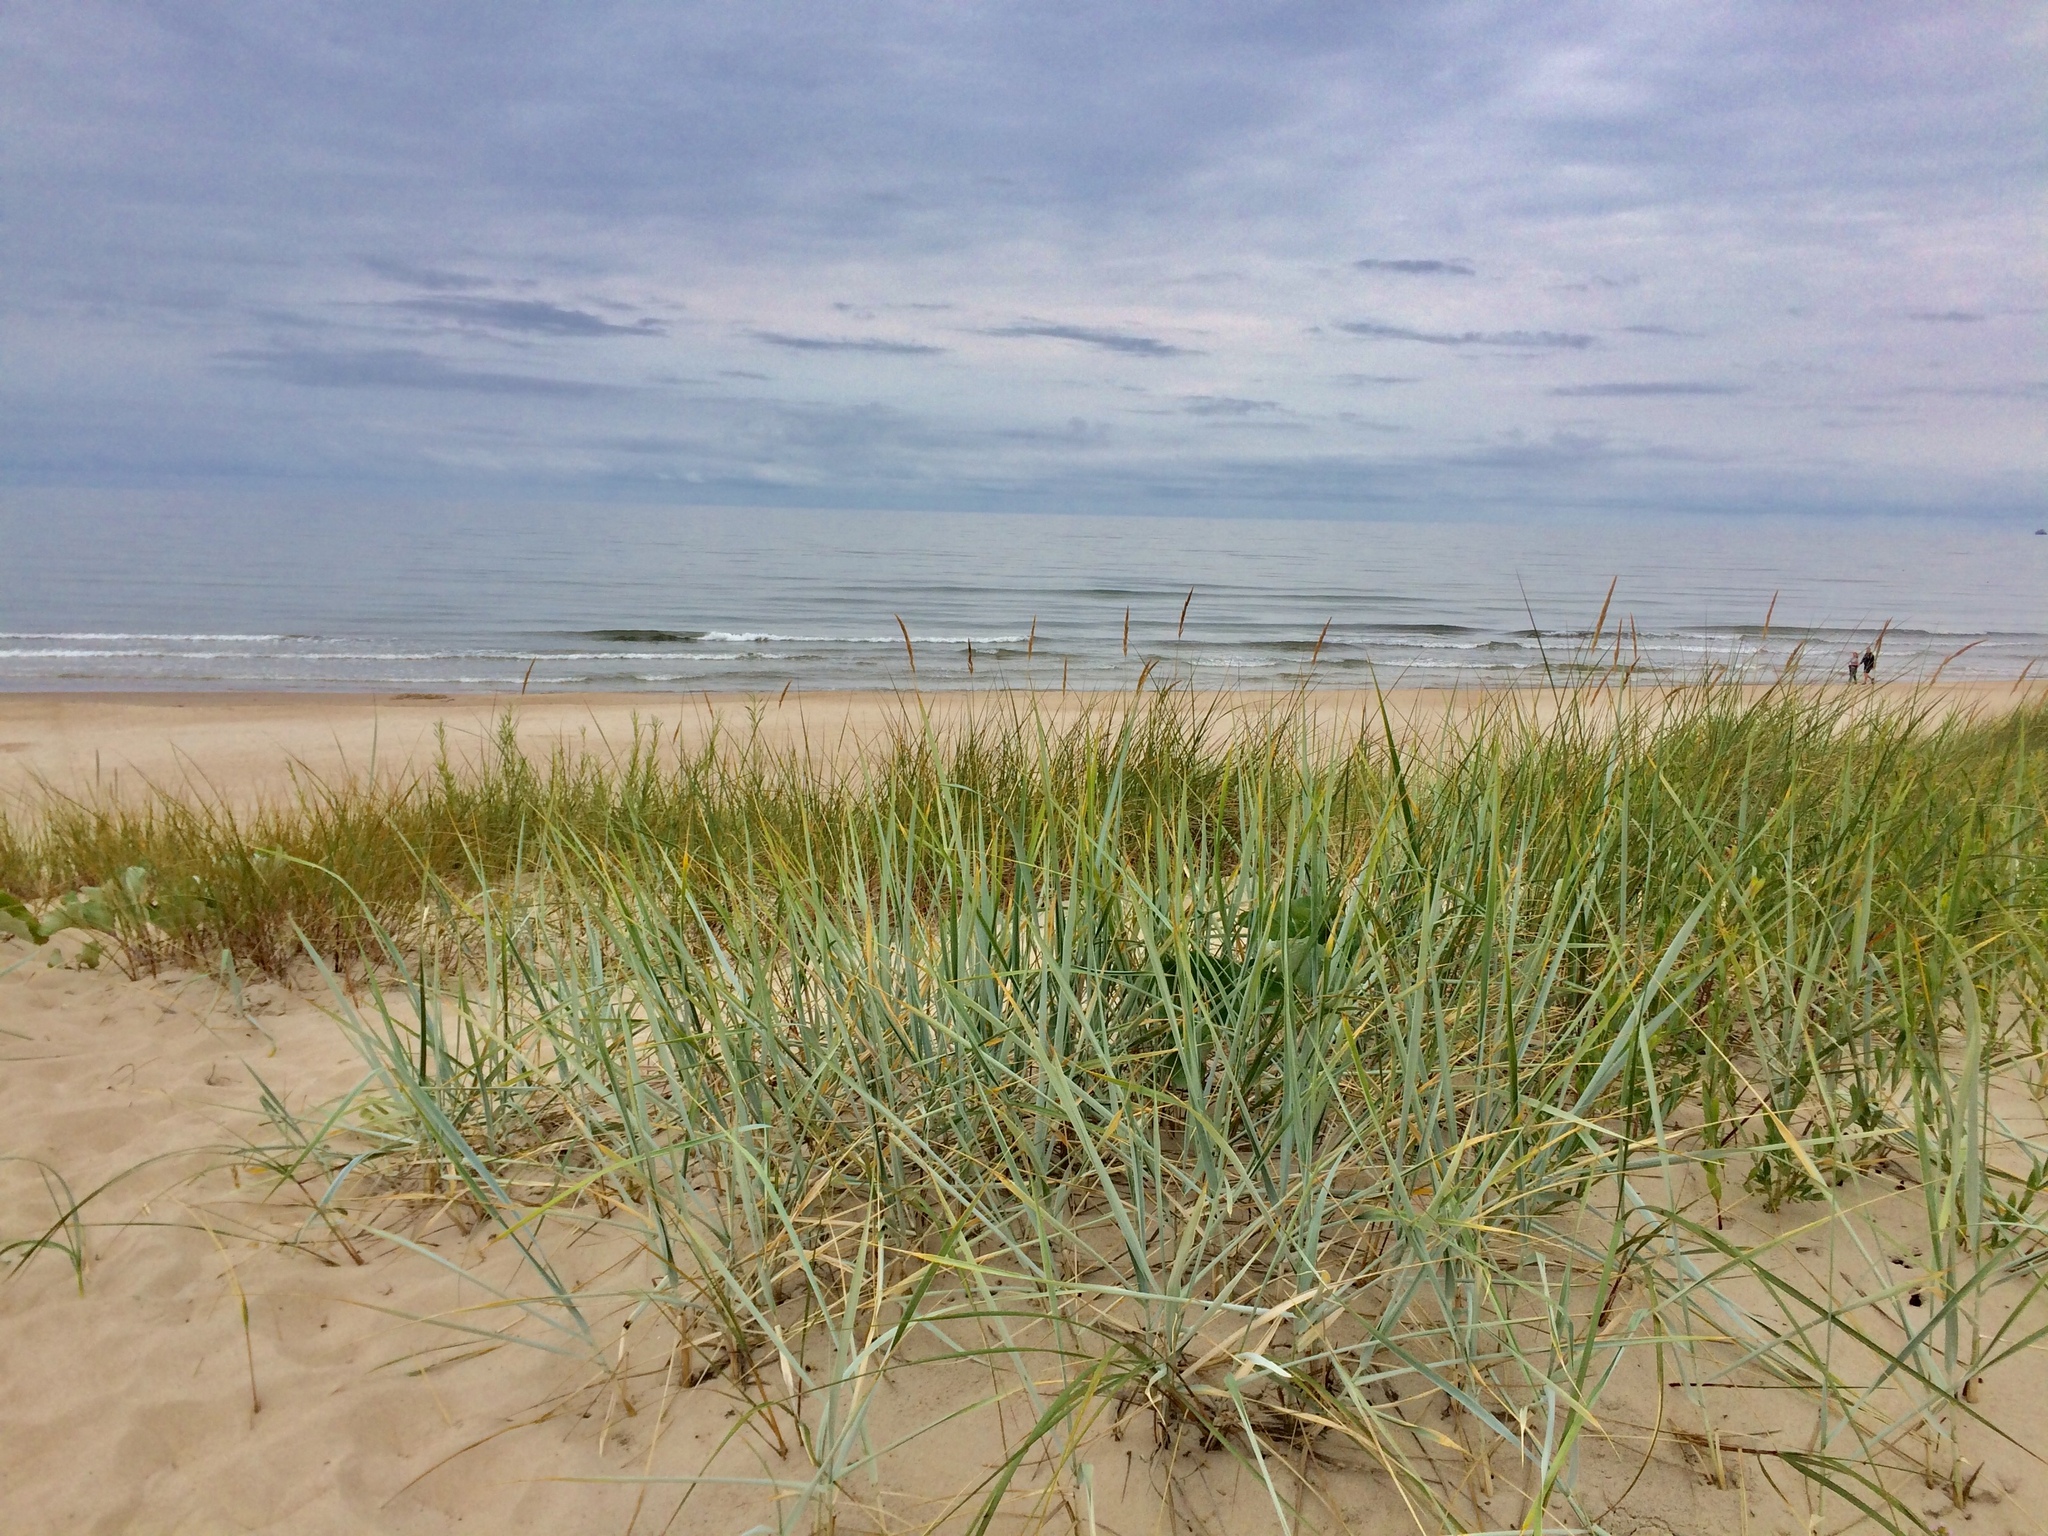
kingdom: Plantae
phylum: Tracheophyta
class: Liliopsida
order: Poales
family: Poaceae
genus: Leymus
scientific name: Leymus arenarius
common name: Lyme-grass
